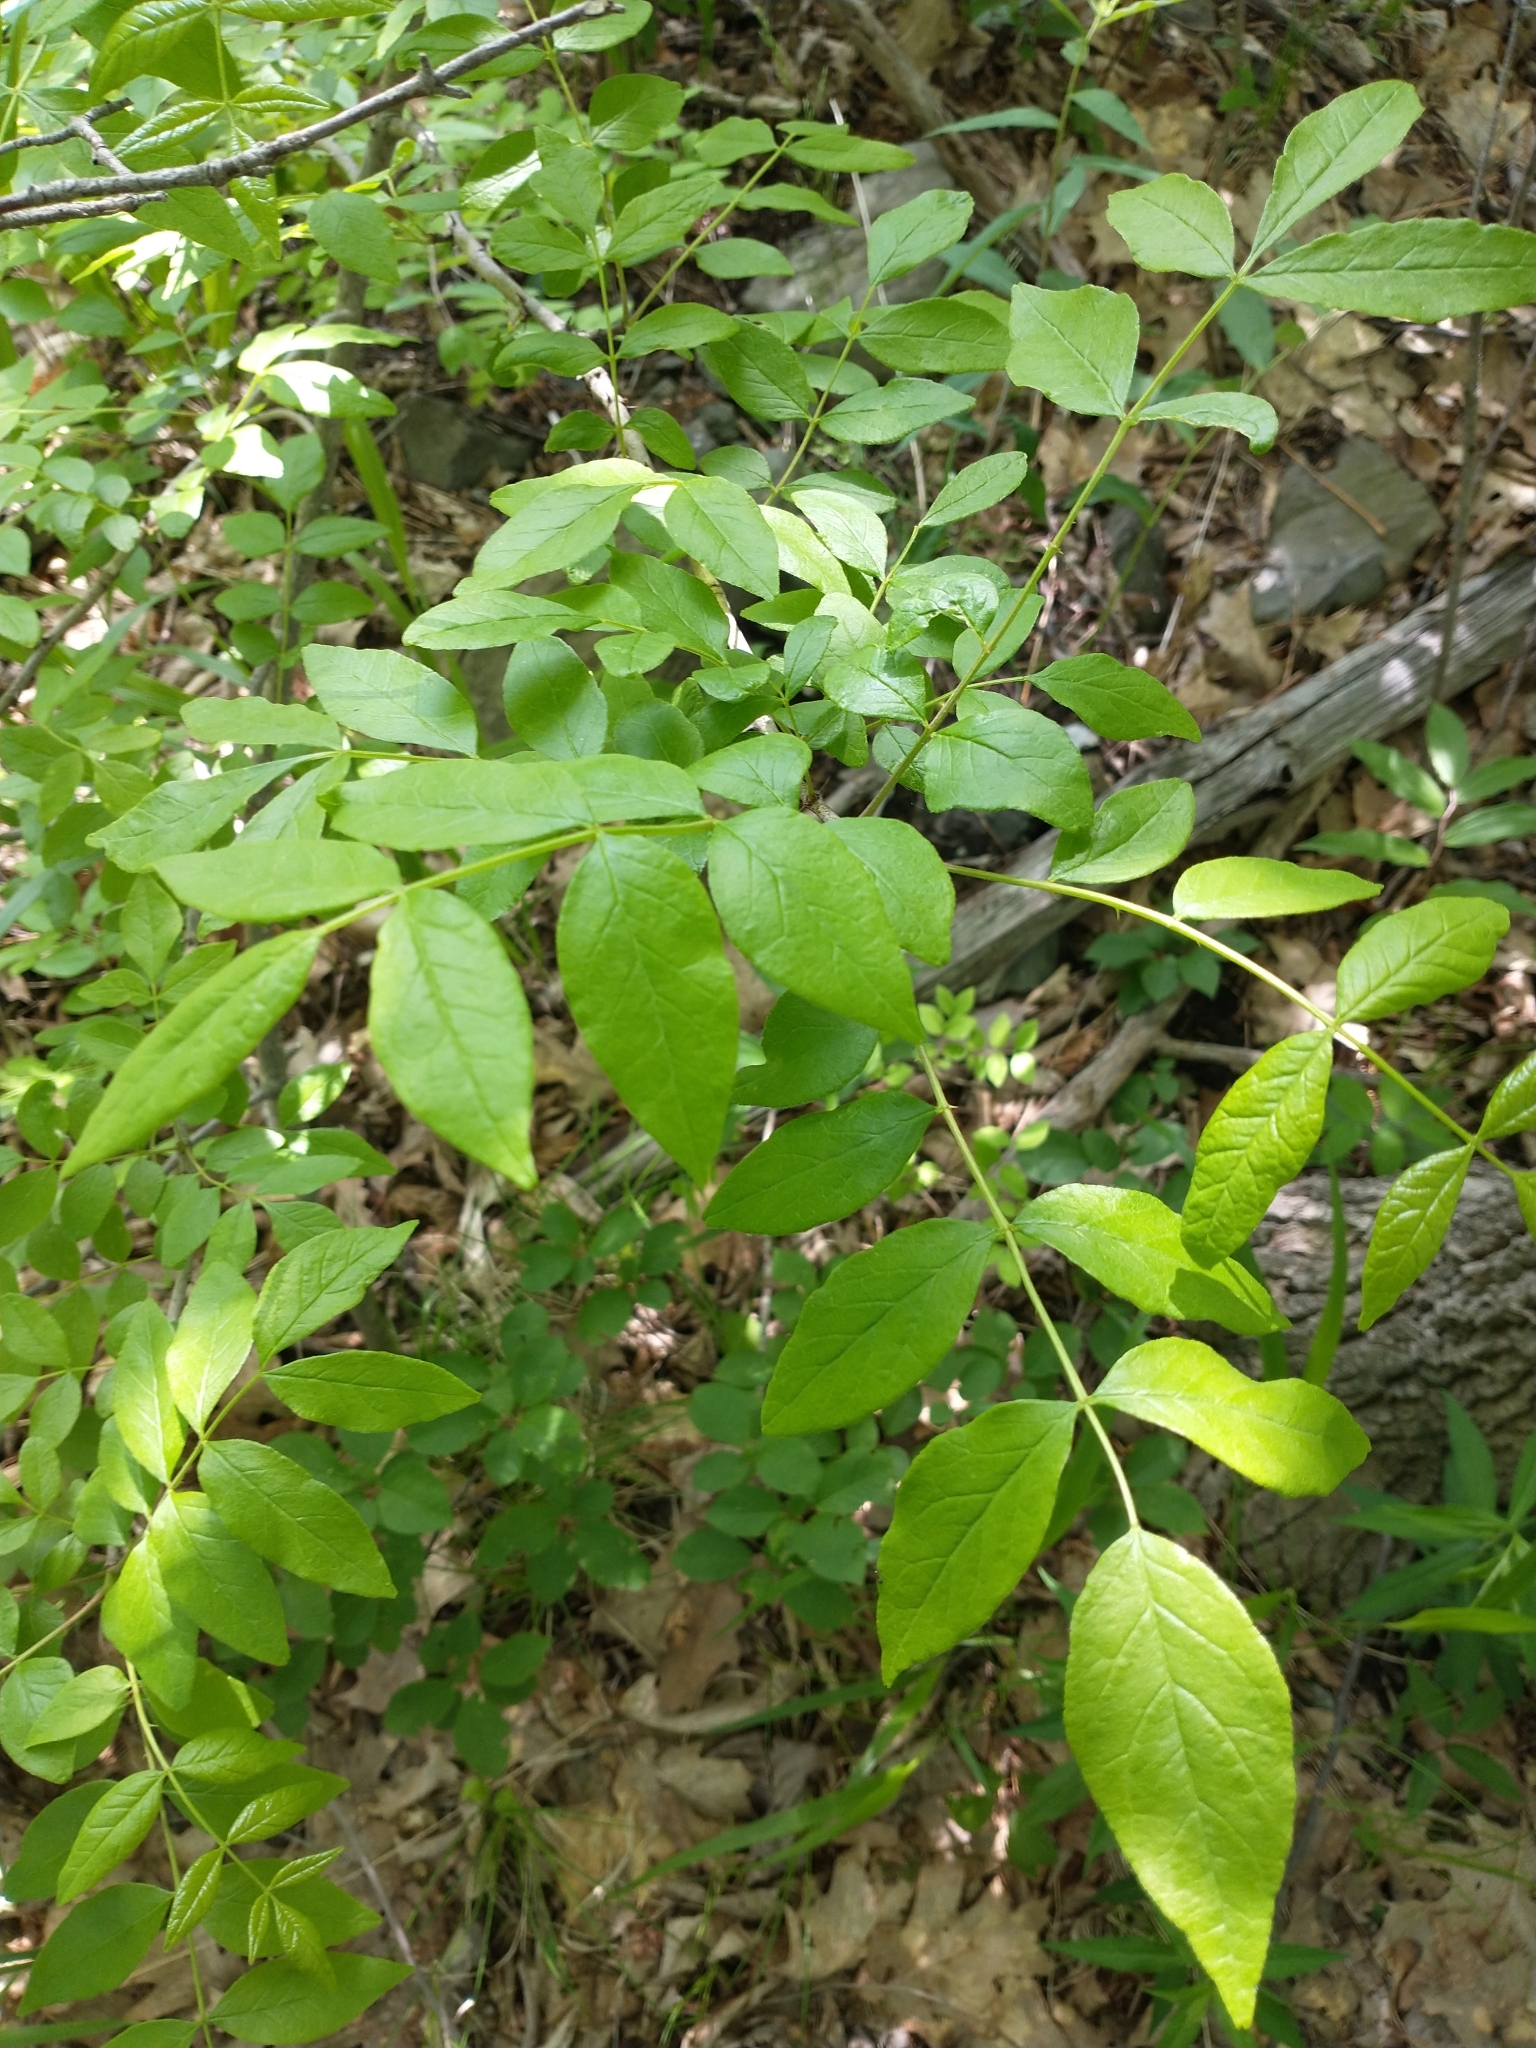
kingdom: Plantae
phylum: Tracheophyta
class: Magnoliopsida
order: Sapindales
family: Rutaceae
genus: Zanthoxylum
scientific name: Zanthoxylum americanum
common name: Northern prickly-ash
